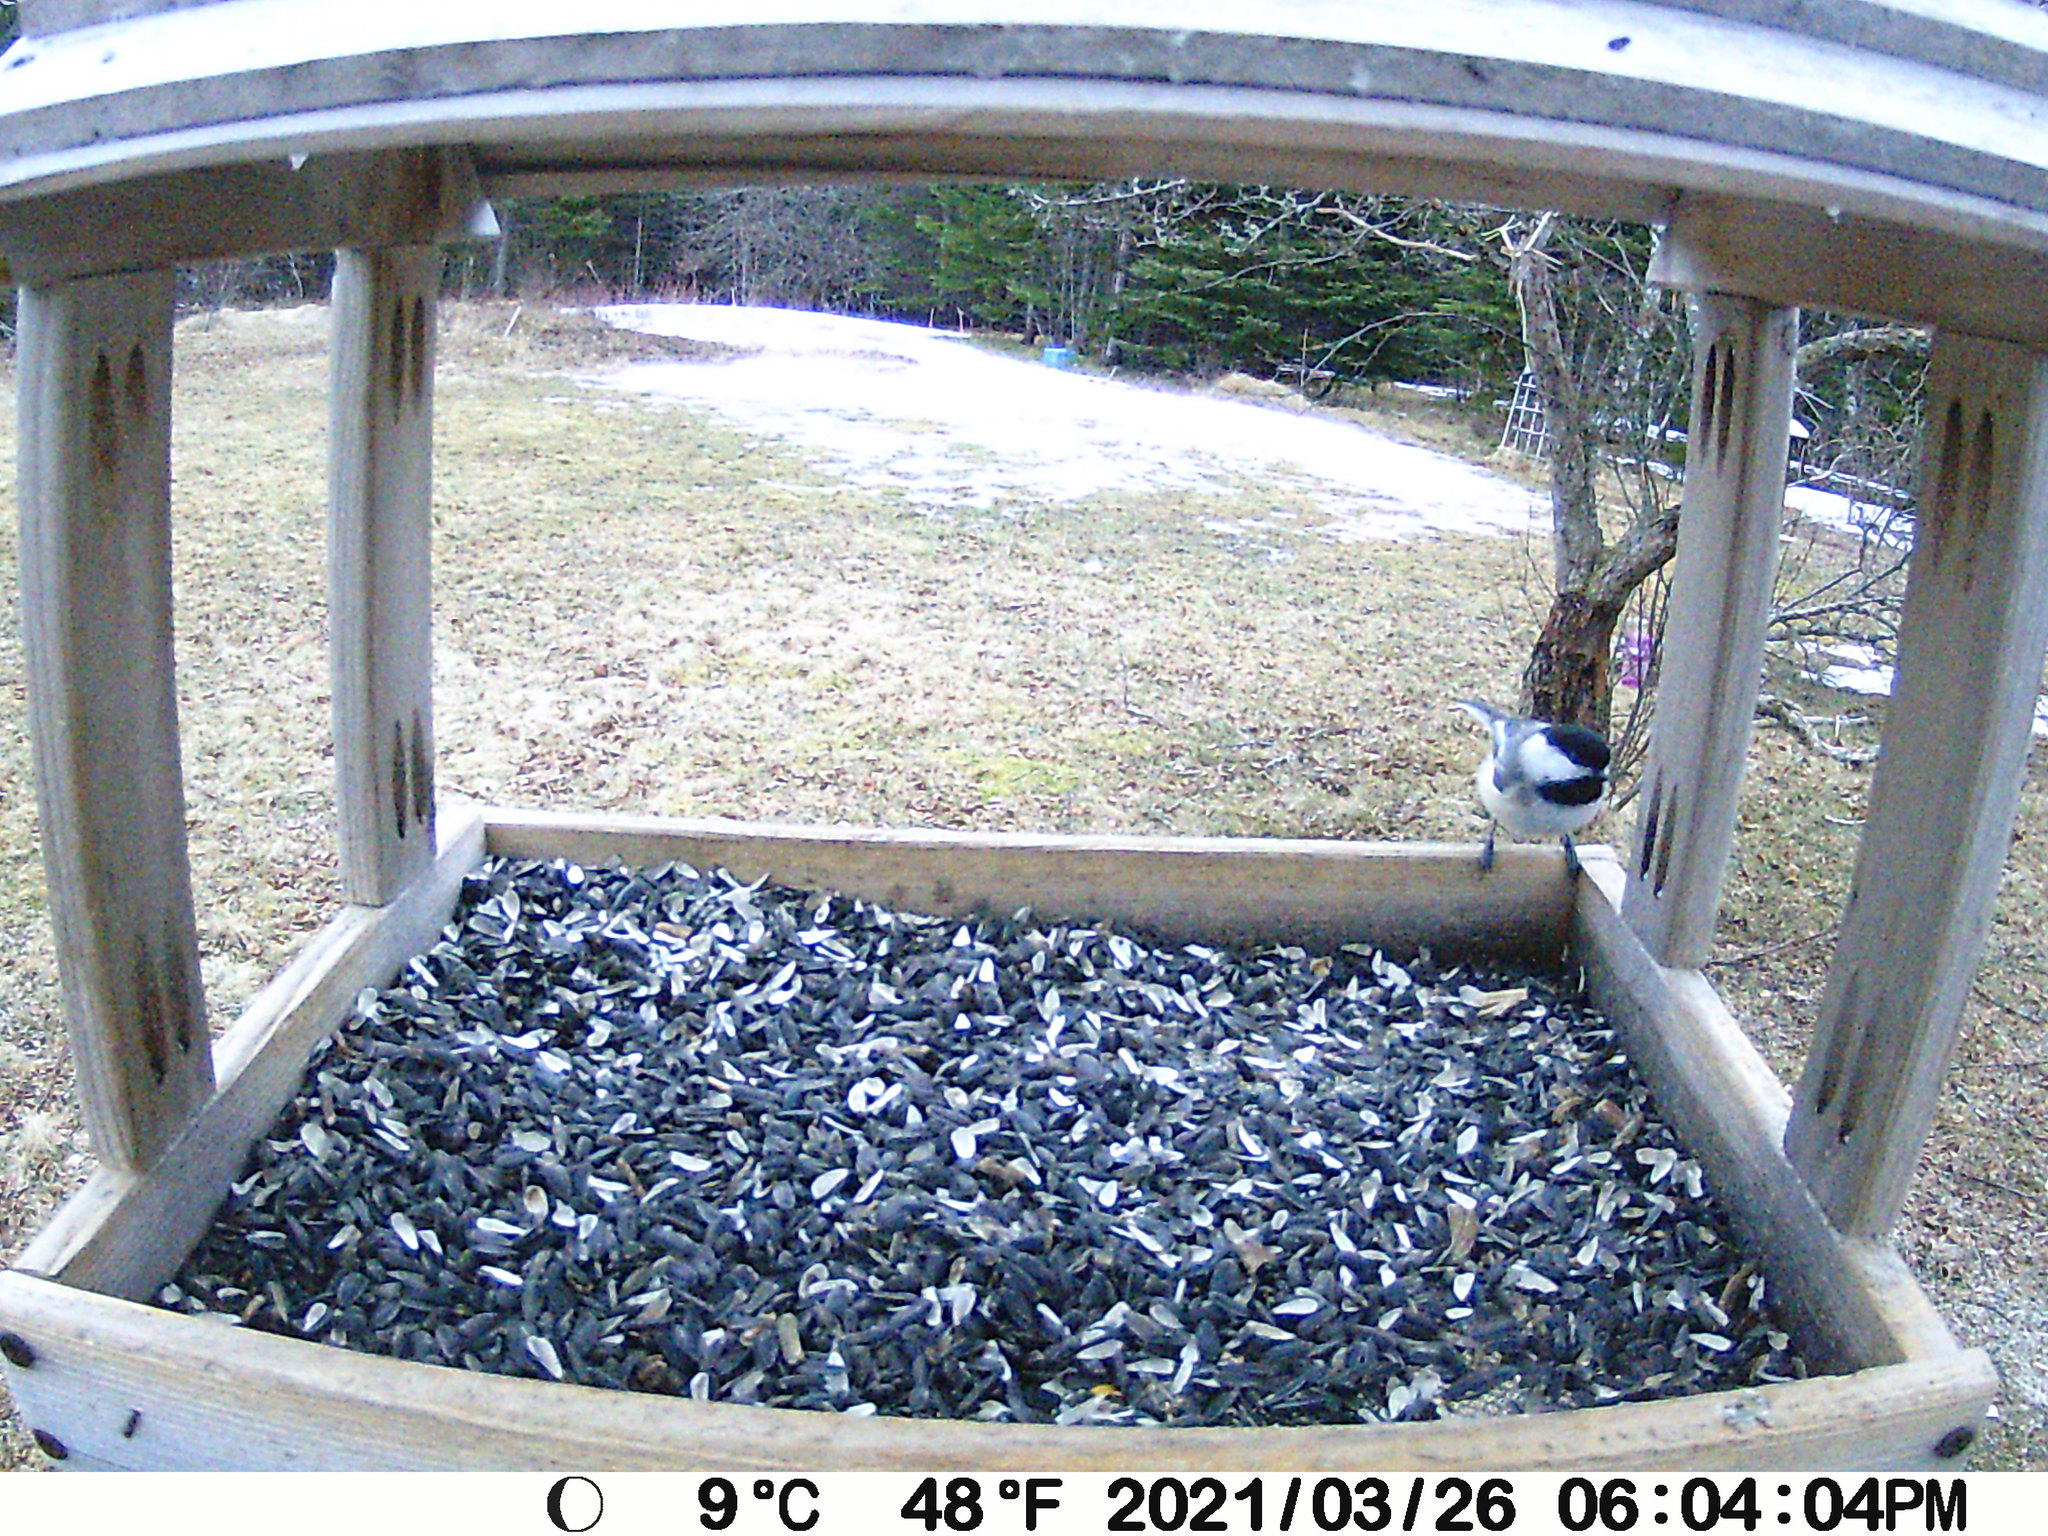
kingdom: Animalia
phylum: Chordata
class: Aves
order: Passeriformes
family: Paridae
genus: Poecile
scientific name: Poecile atricapillus
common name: Black-capped chickadee
